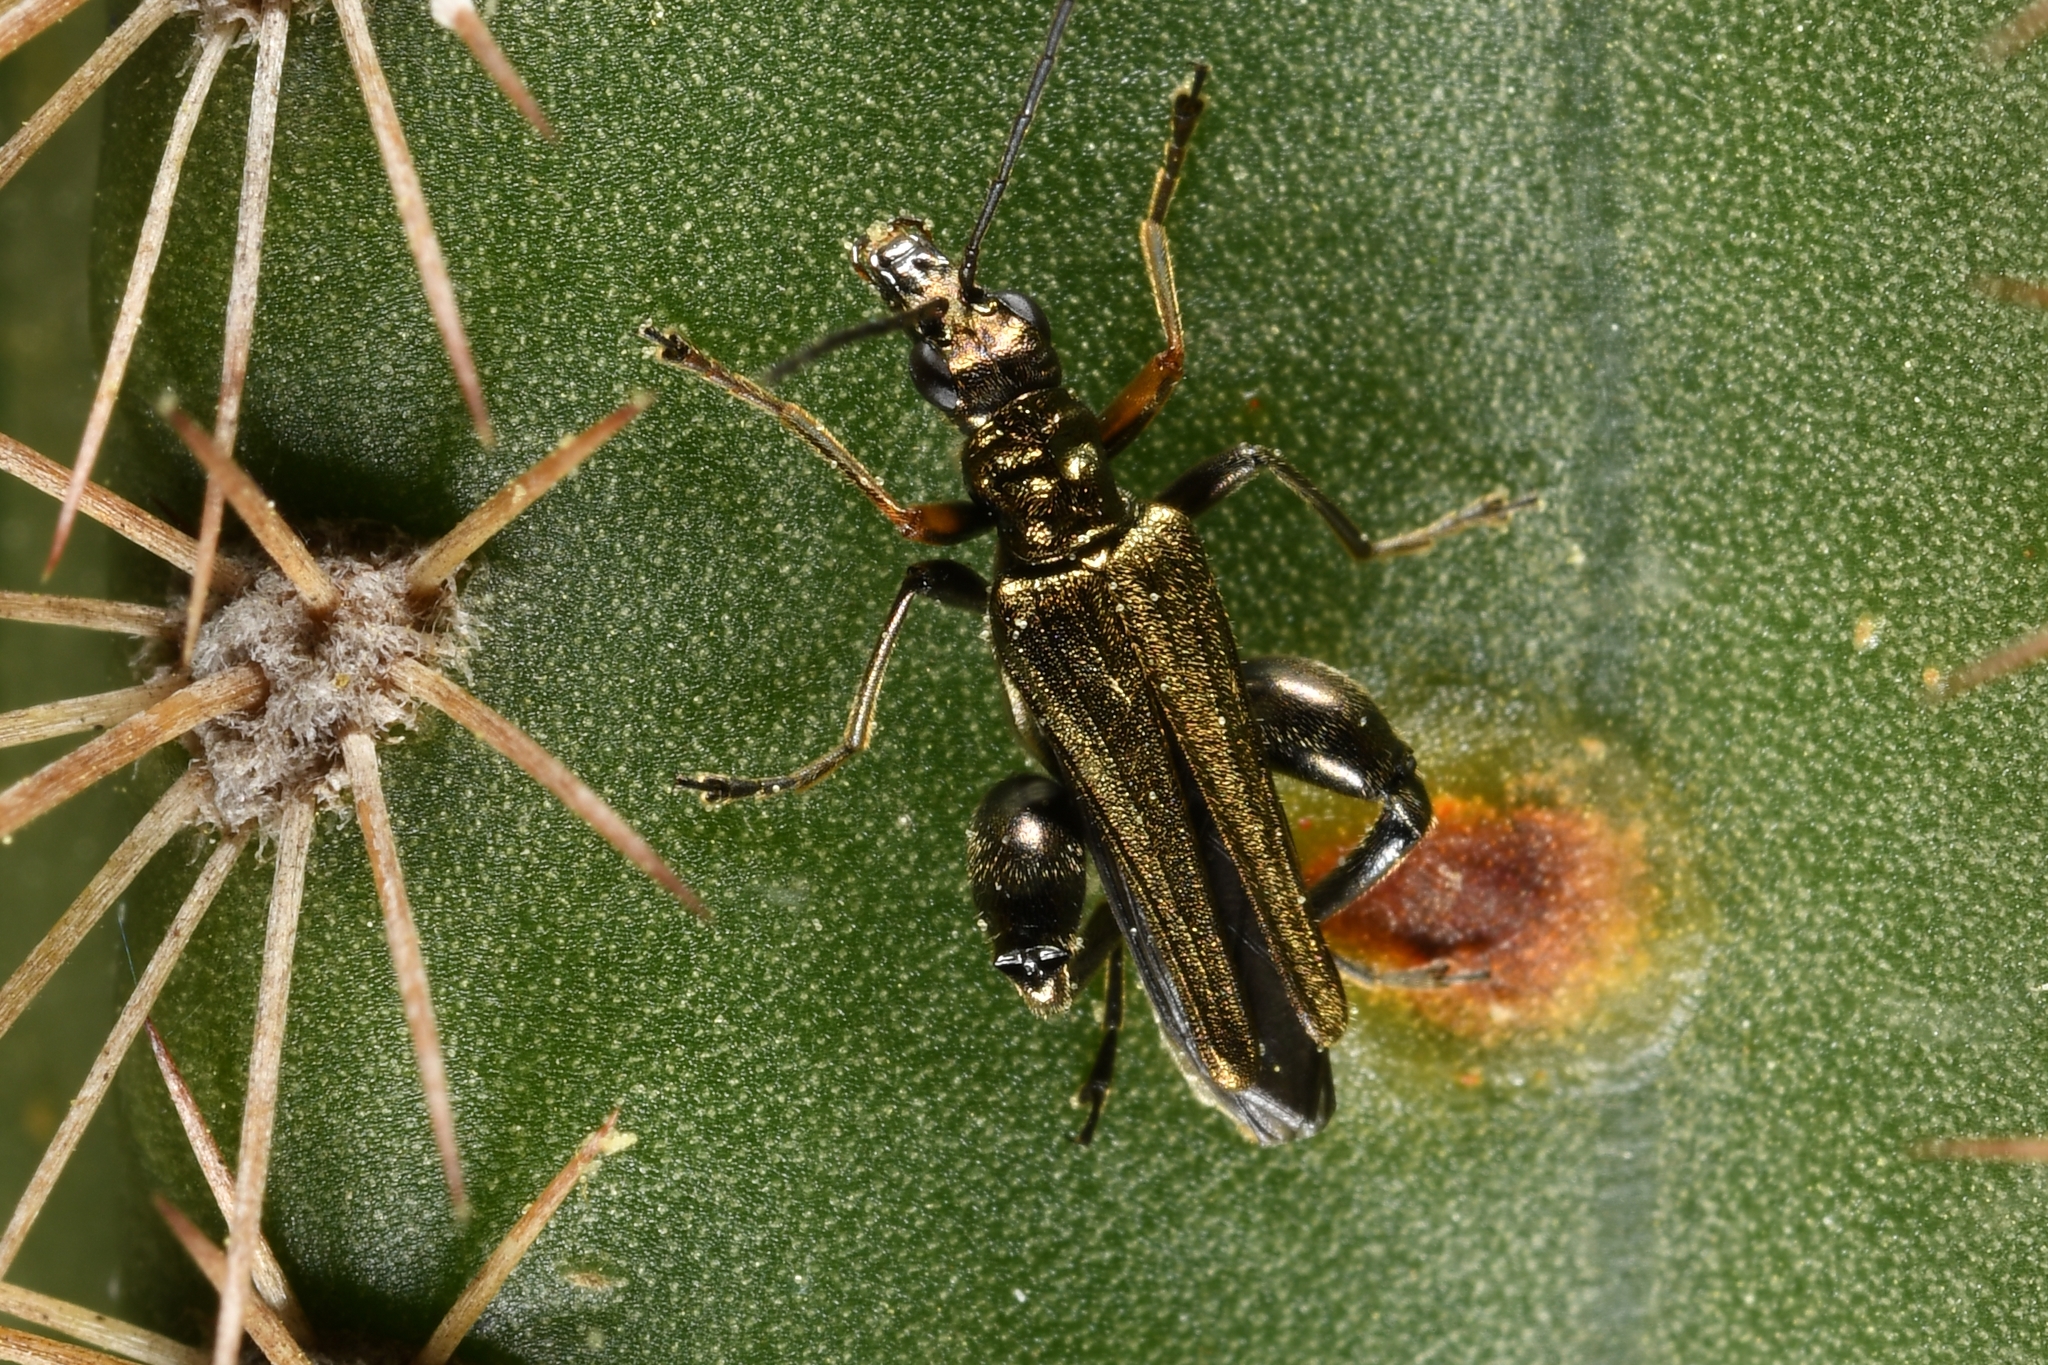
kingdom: Animalia
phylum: Arthropoda
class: Insecta
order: Coleoptera
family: Oedemeridae
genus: Oedemera
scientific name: Oedemera flavipes
